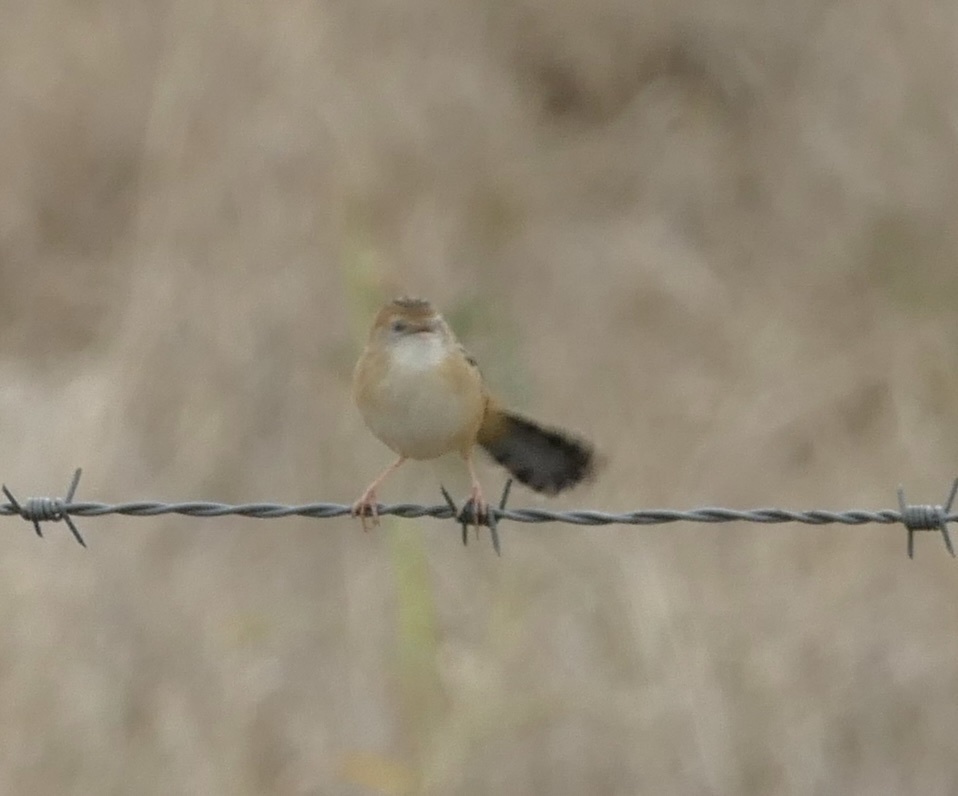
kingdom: Animalia
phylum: Chordata
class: Aves
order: Passeriformes
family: Cisticolidae
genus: Cisticola
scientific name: Cisticola exilis
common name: Golden-headed cisticola
